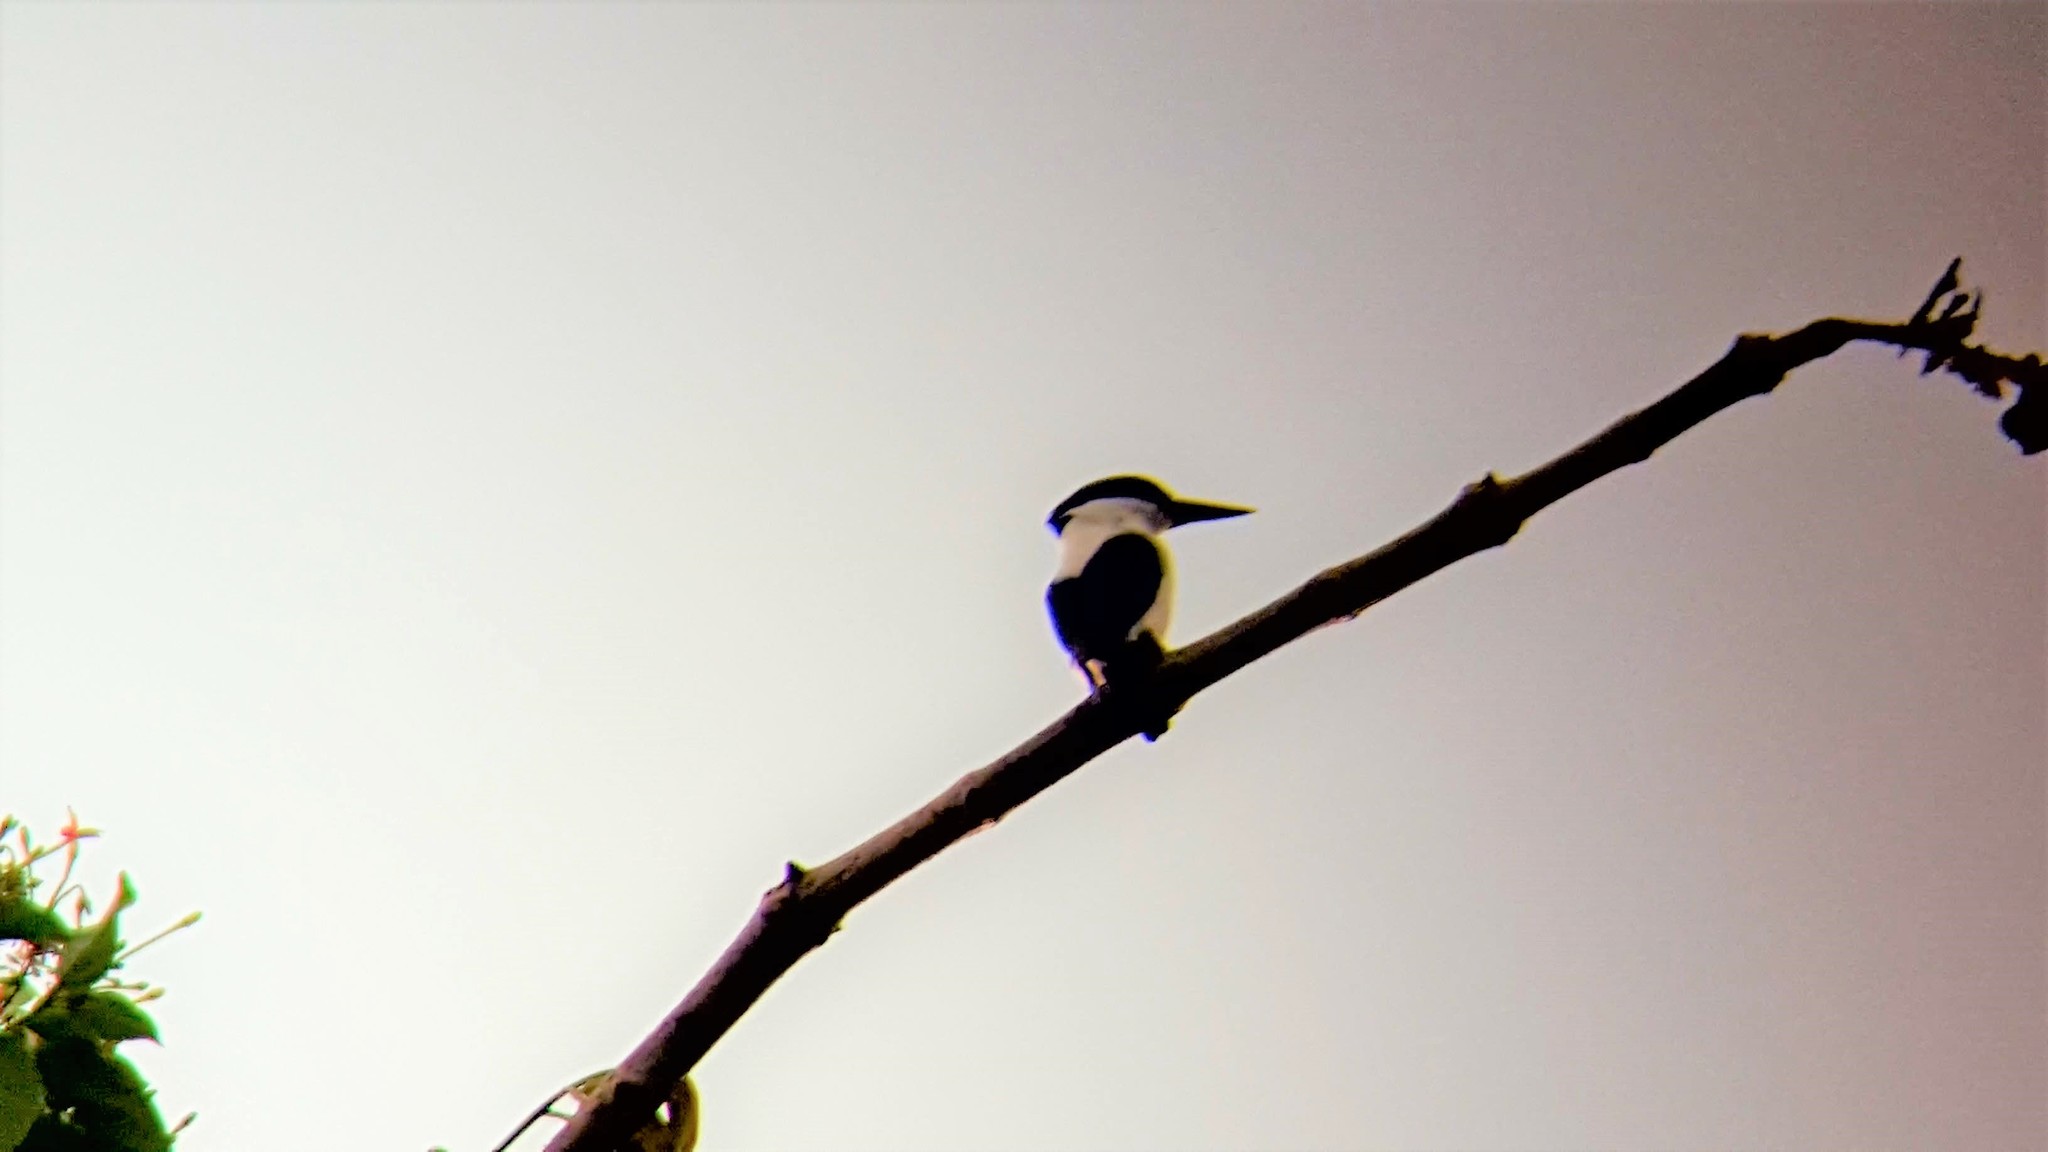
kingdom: Animalia
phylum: Chordata
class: Aves
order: Coraciiformes
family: Alcedinidae
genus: Todiramphus
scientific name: Todiramphus albonotatus
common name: White-mantled kingfisher
